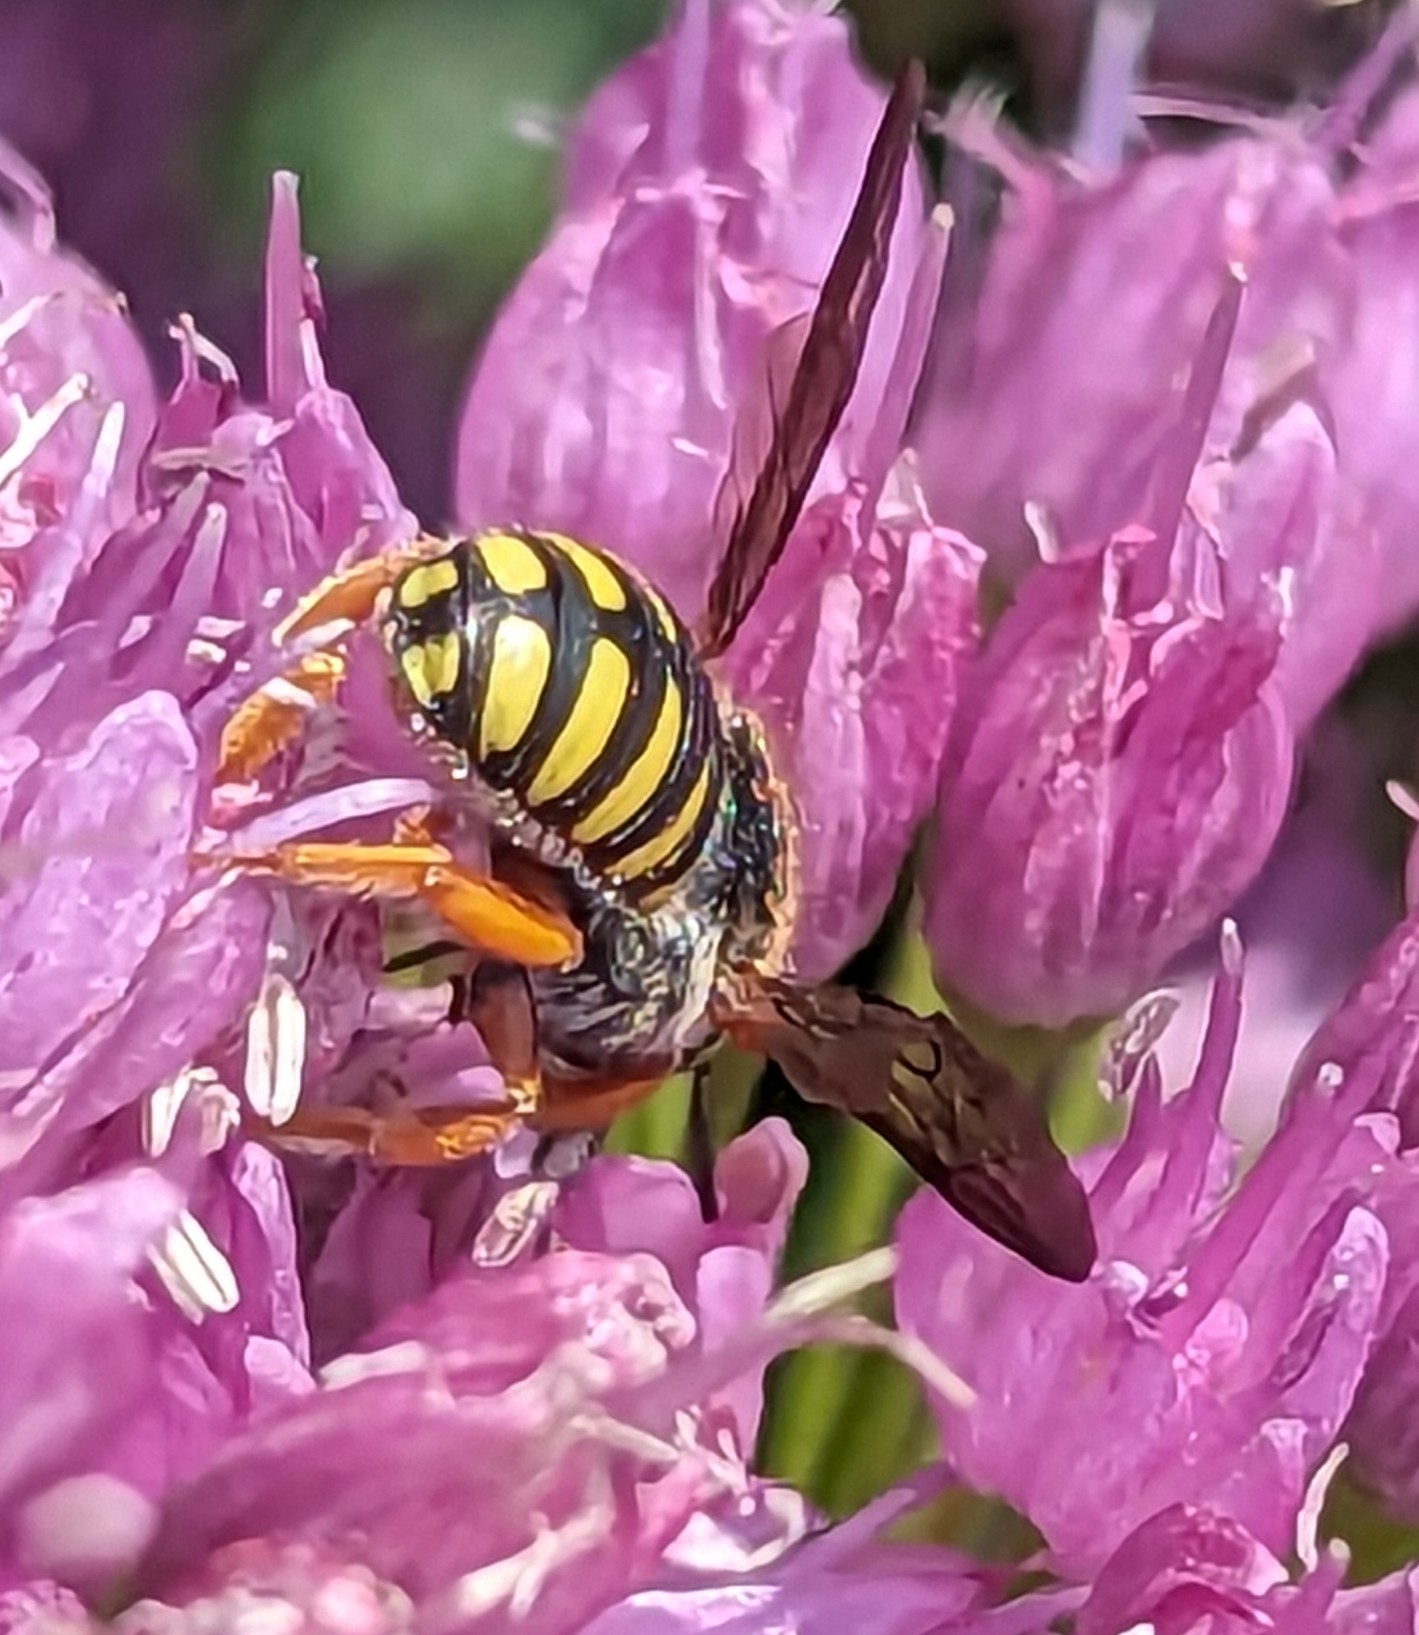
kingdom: Animalia
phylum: Arthropoda
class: Insecta
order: Hymenoptera
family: Megachilidae
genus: Anthidium
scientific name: Anthidium oblongatum
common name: Oblong wool carder bee
